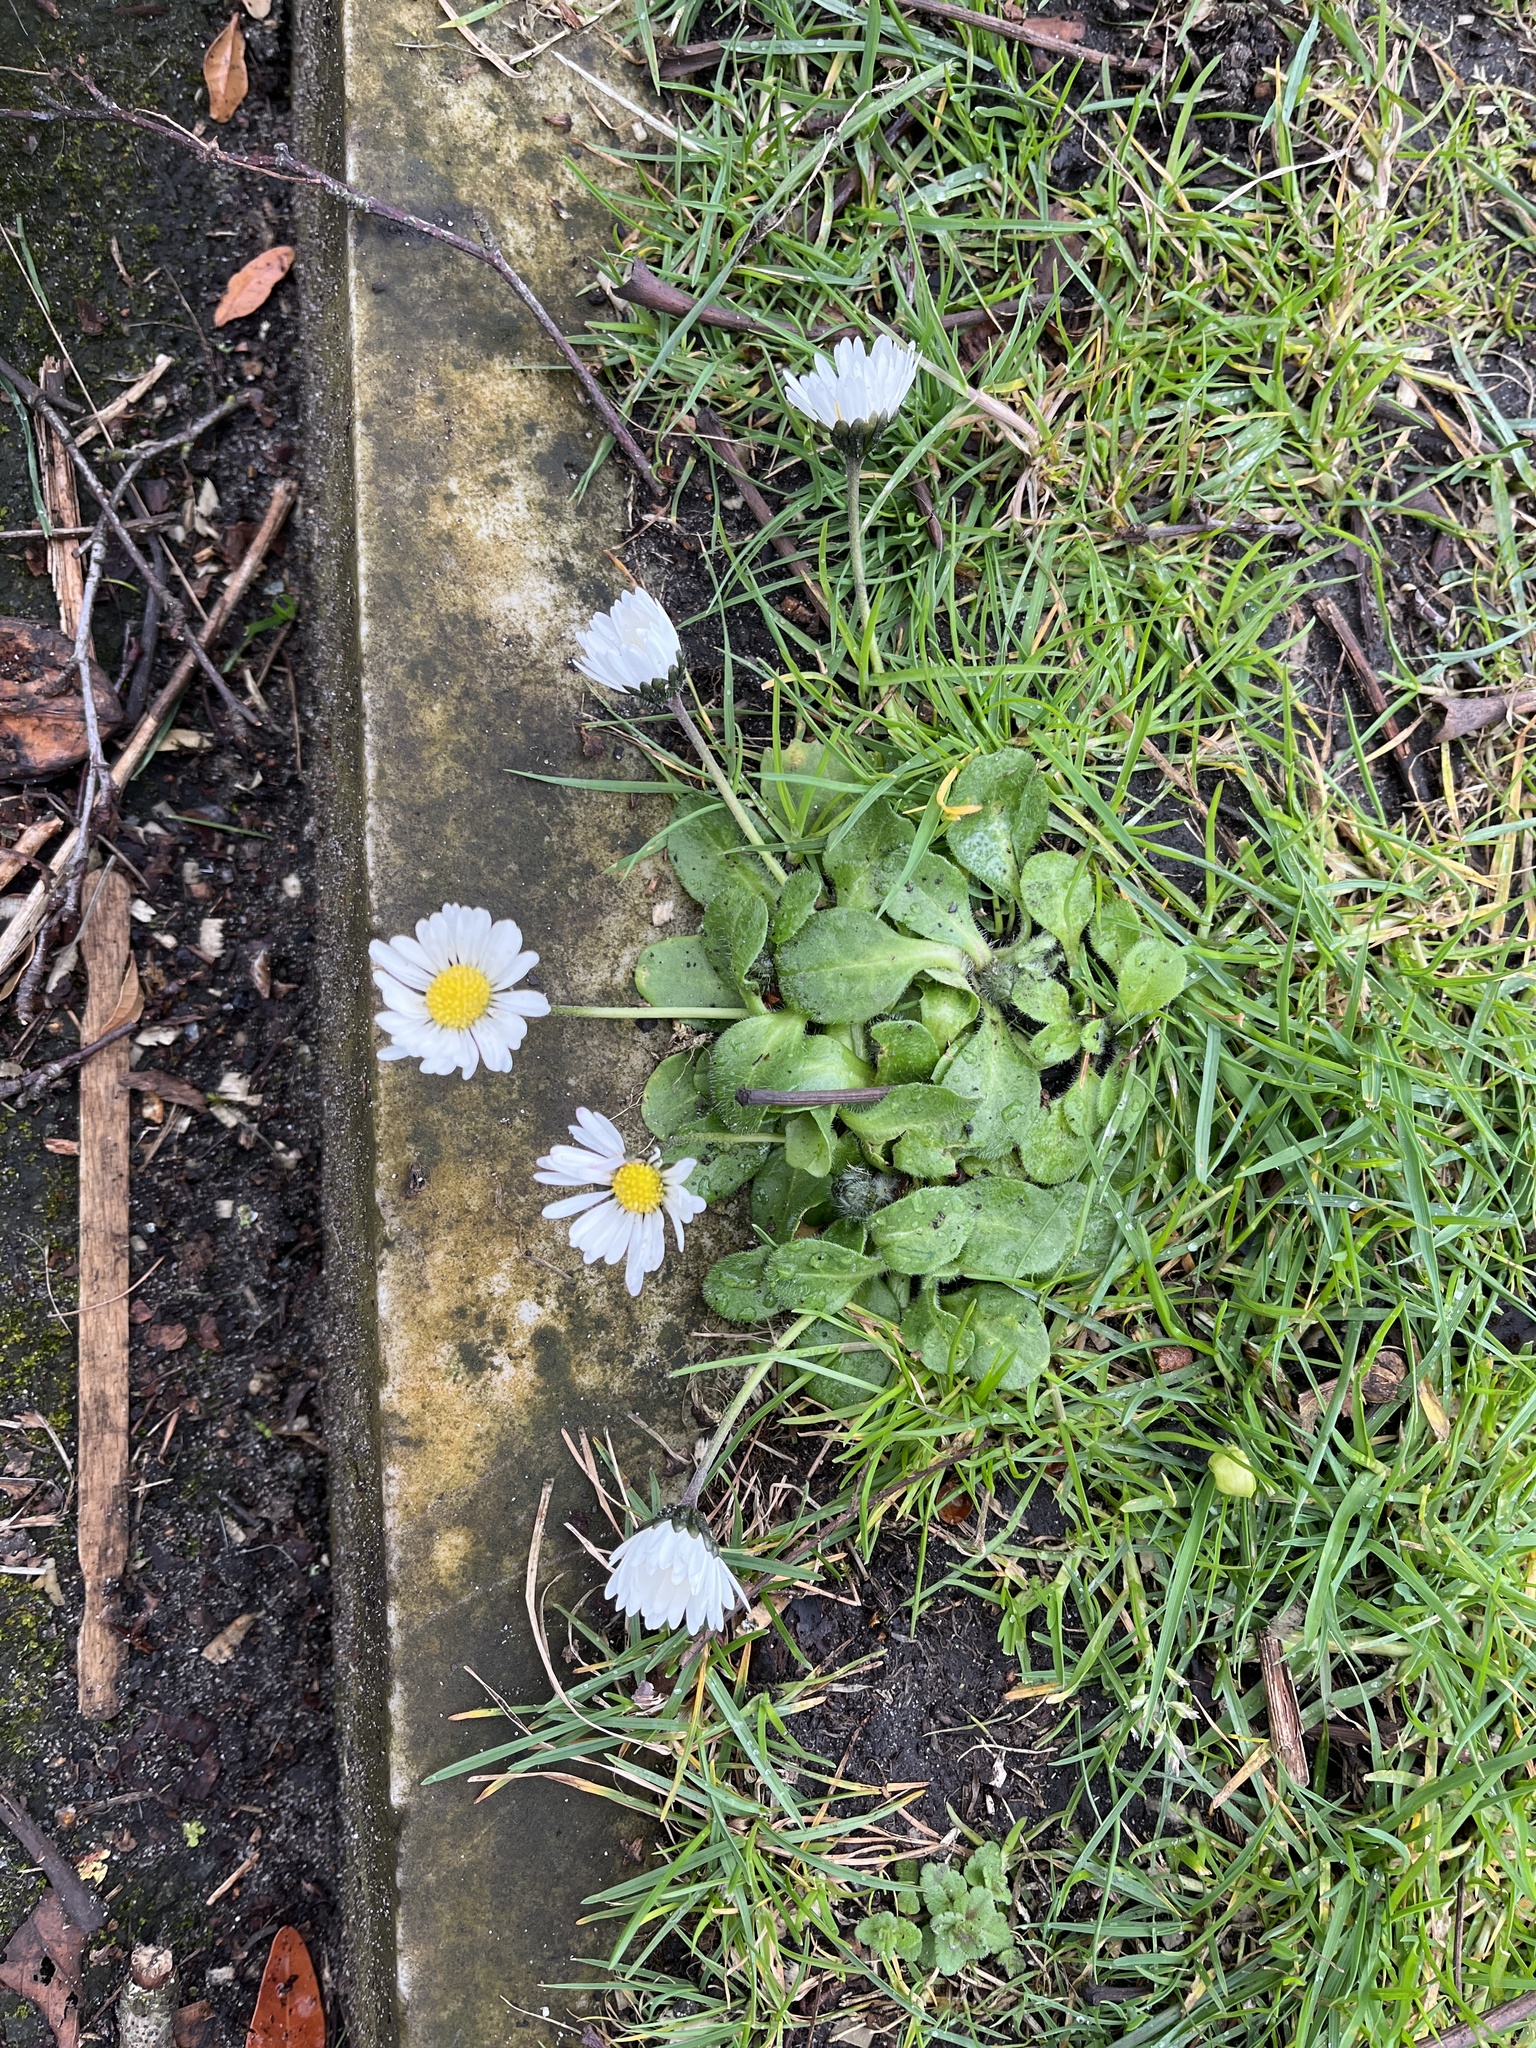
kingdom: Plantae
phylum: Tracheophyta
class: Magnoliopsida
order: Asterales
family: Asteraceae
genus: Bellis
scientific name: Bellis perennis
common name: Lawndaisy
